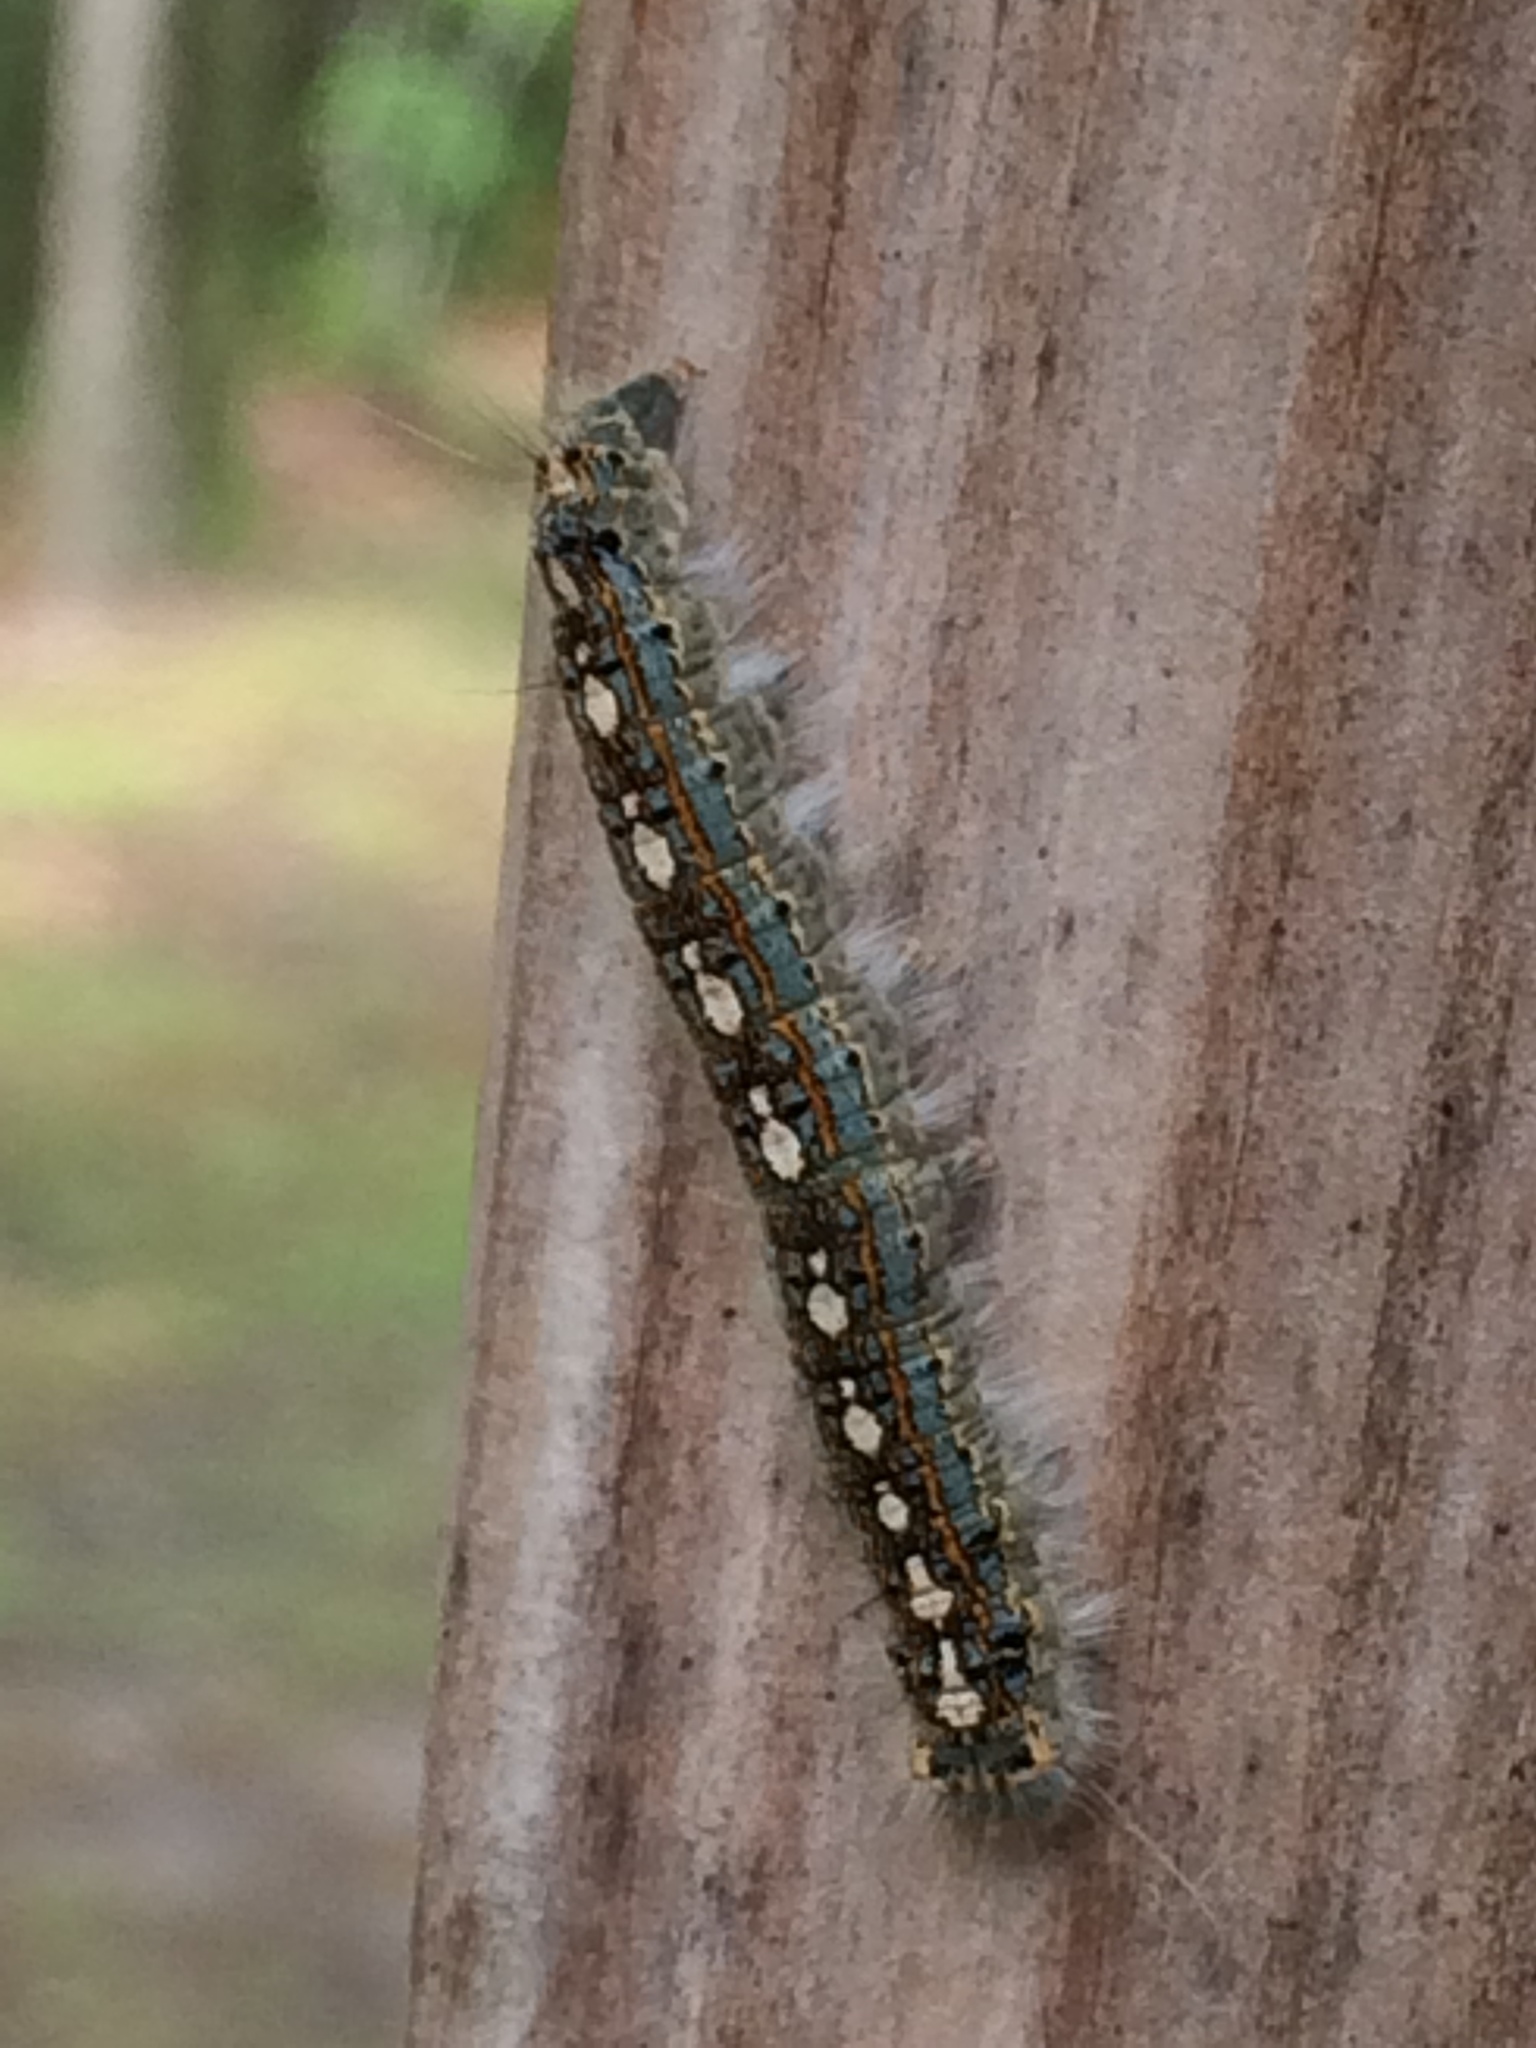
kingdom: Animalia
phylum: Arthropoda
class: Insecta
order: Lepidoptera
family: Lasiocampidae
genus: Malacosoma
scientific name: Malacosoma disstria
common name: Forest tent caterpillar
